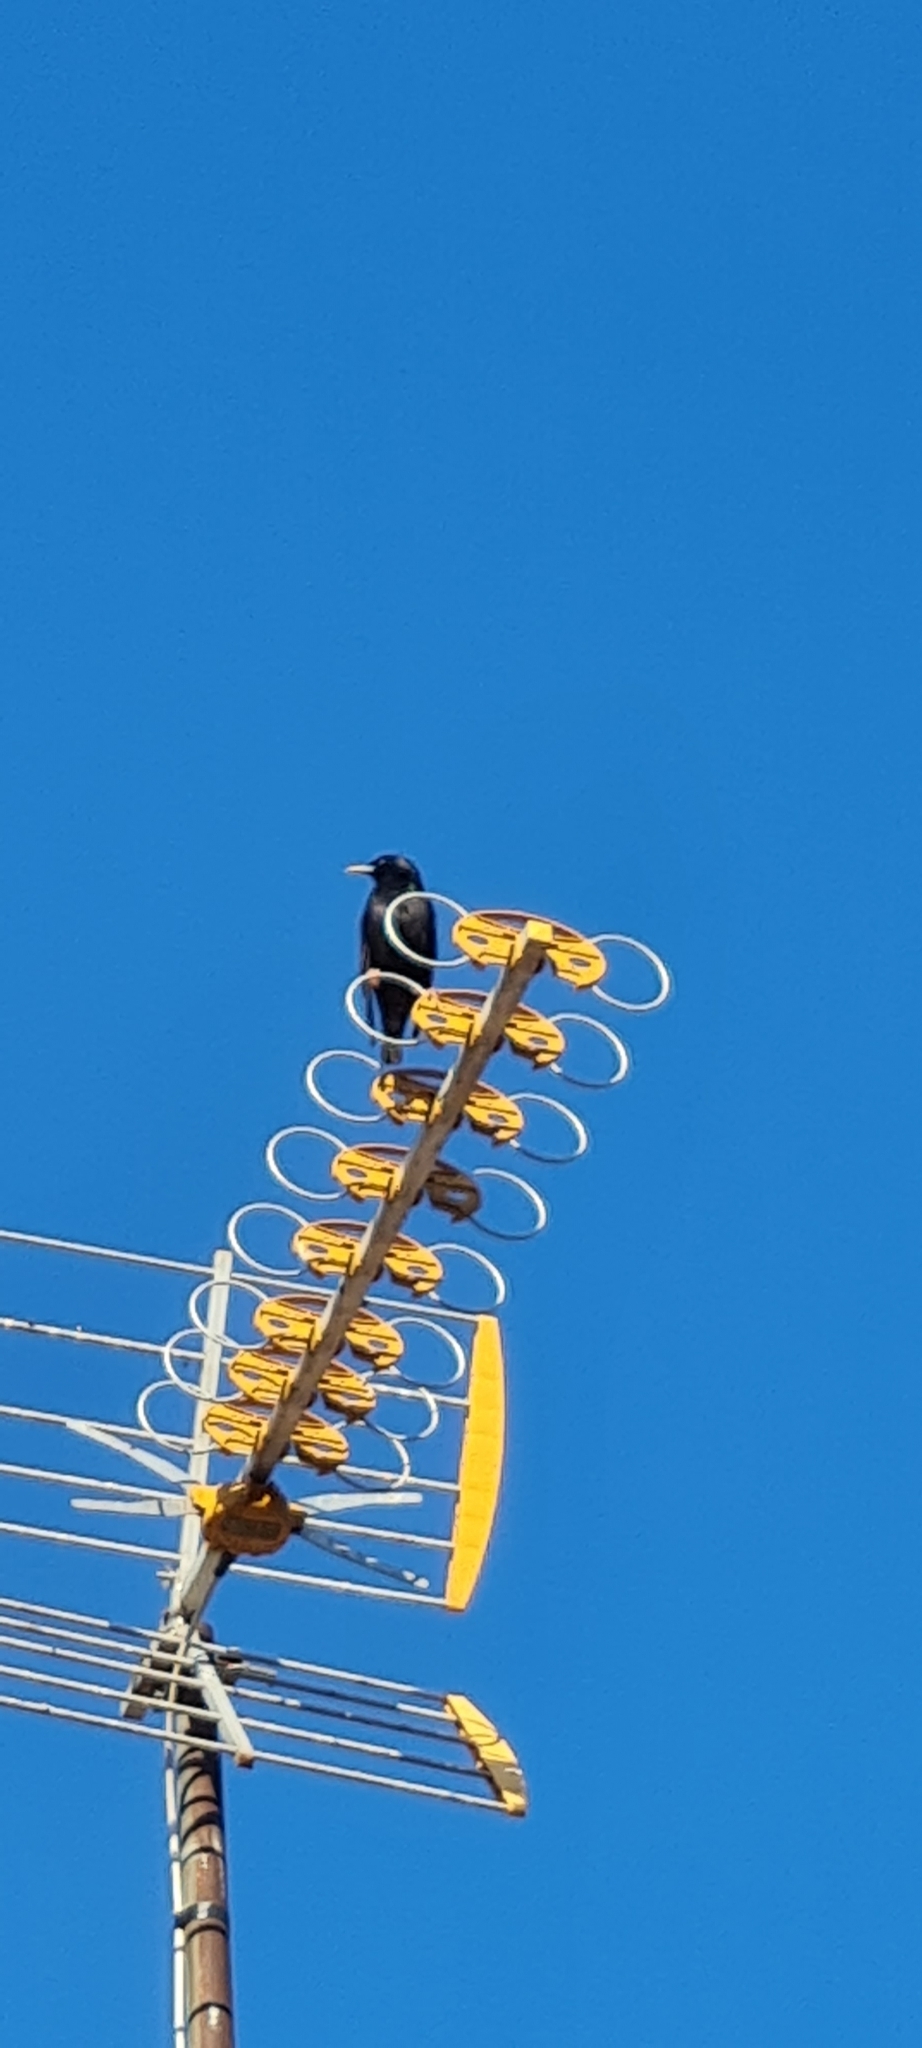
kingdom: Animalia
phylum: Chordata
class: Aves
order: Passeriformes
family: Sturnidae
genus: Sturnus
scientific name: Sturnus unicolor
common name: Spotless starling
